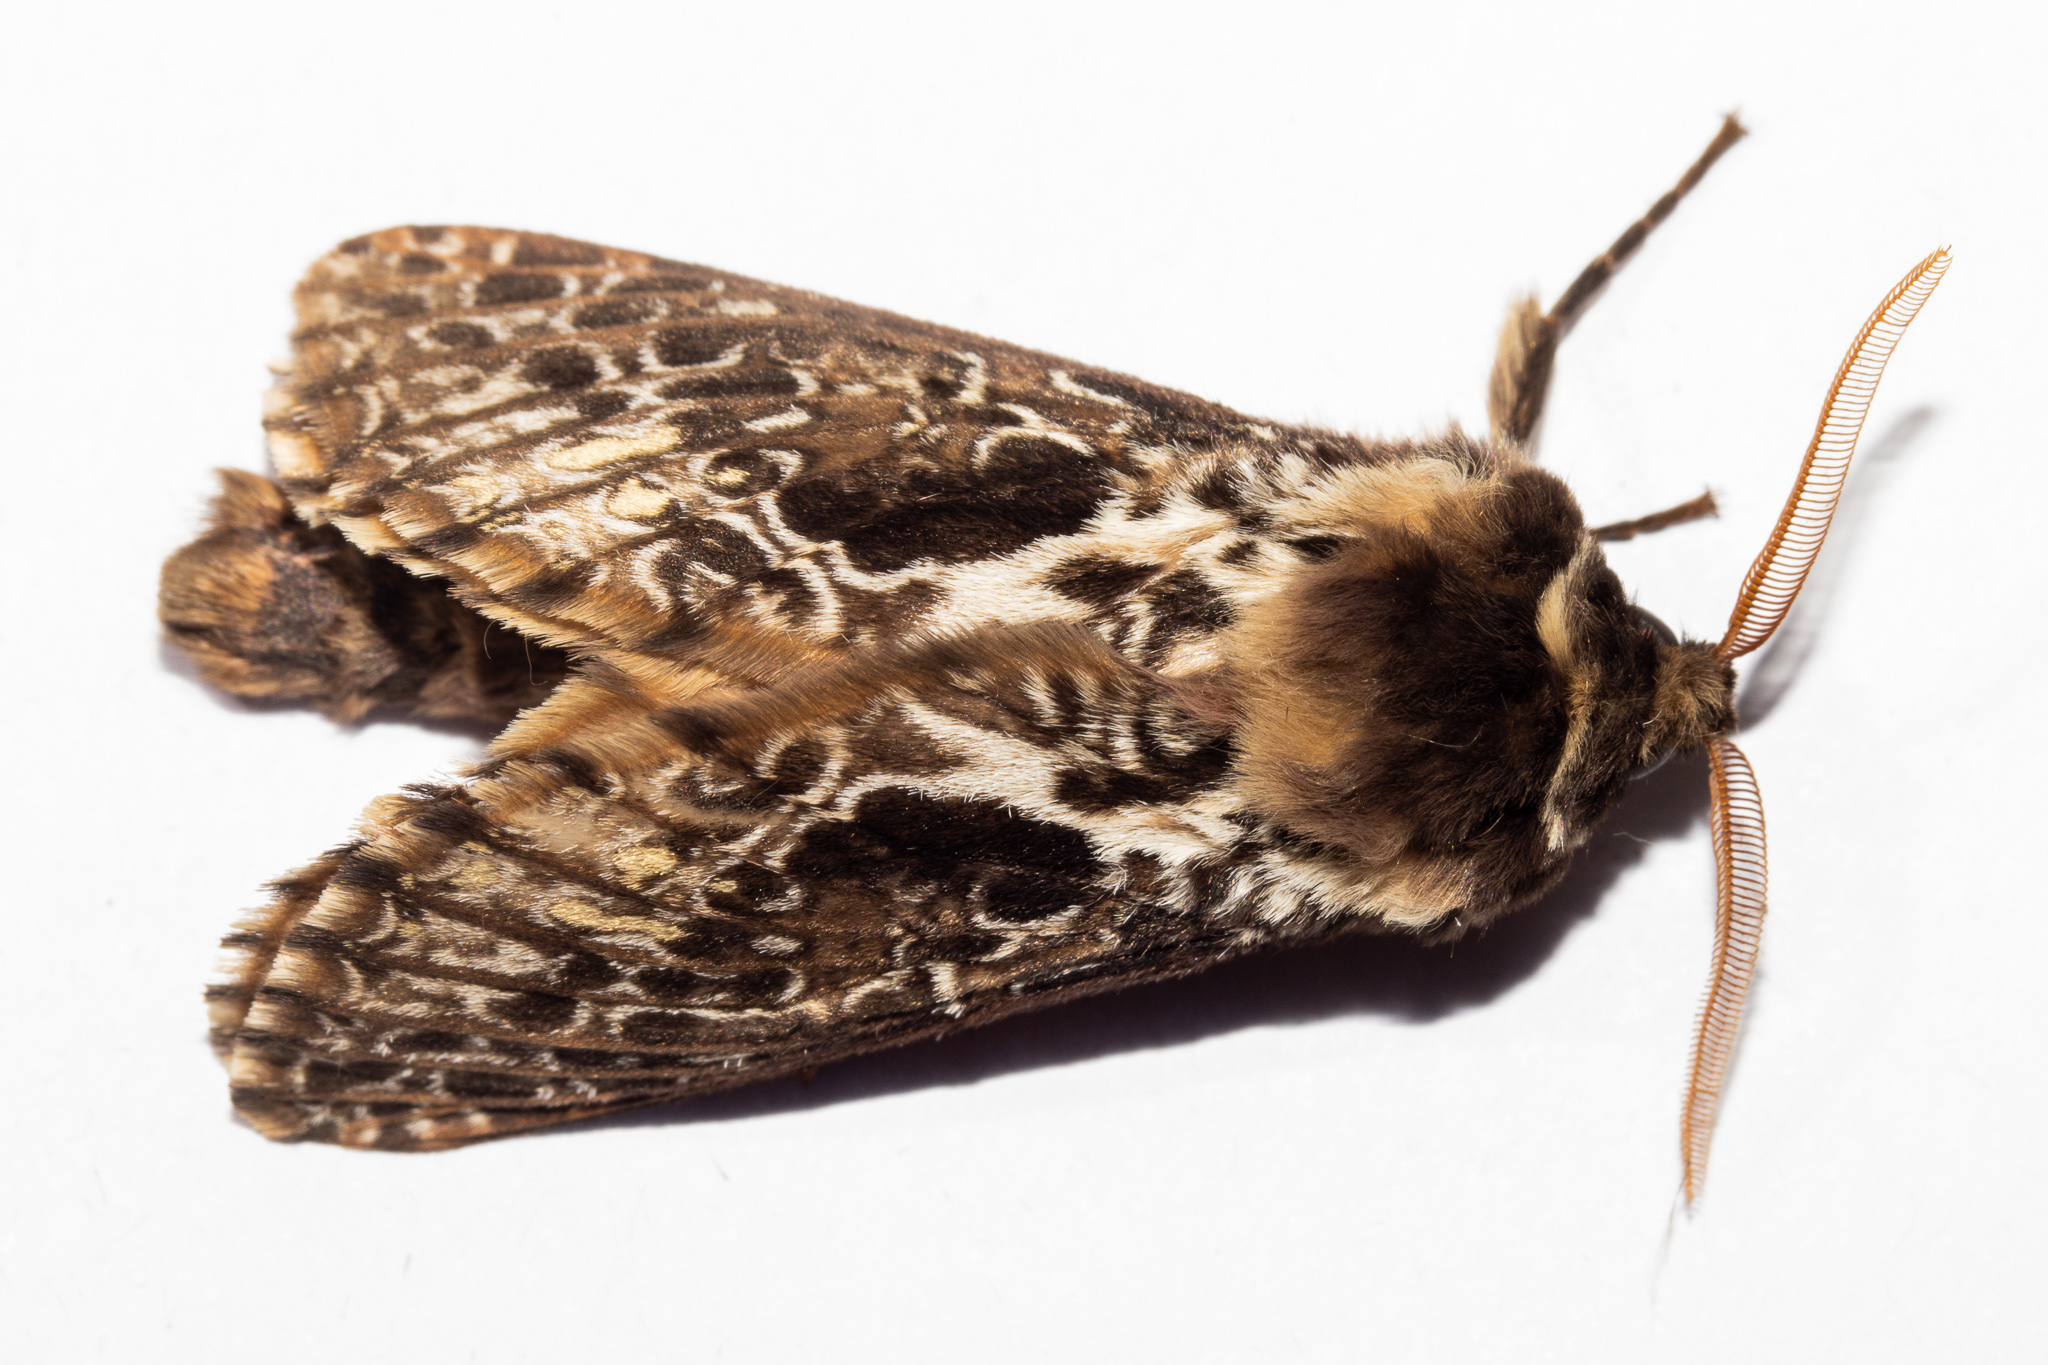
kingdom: Animalia
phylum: Arthropoda
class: Insecta
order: Lepidoptera
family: Hepialidae
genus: Aoraia
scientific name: Aoraia aurimaculata
